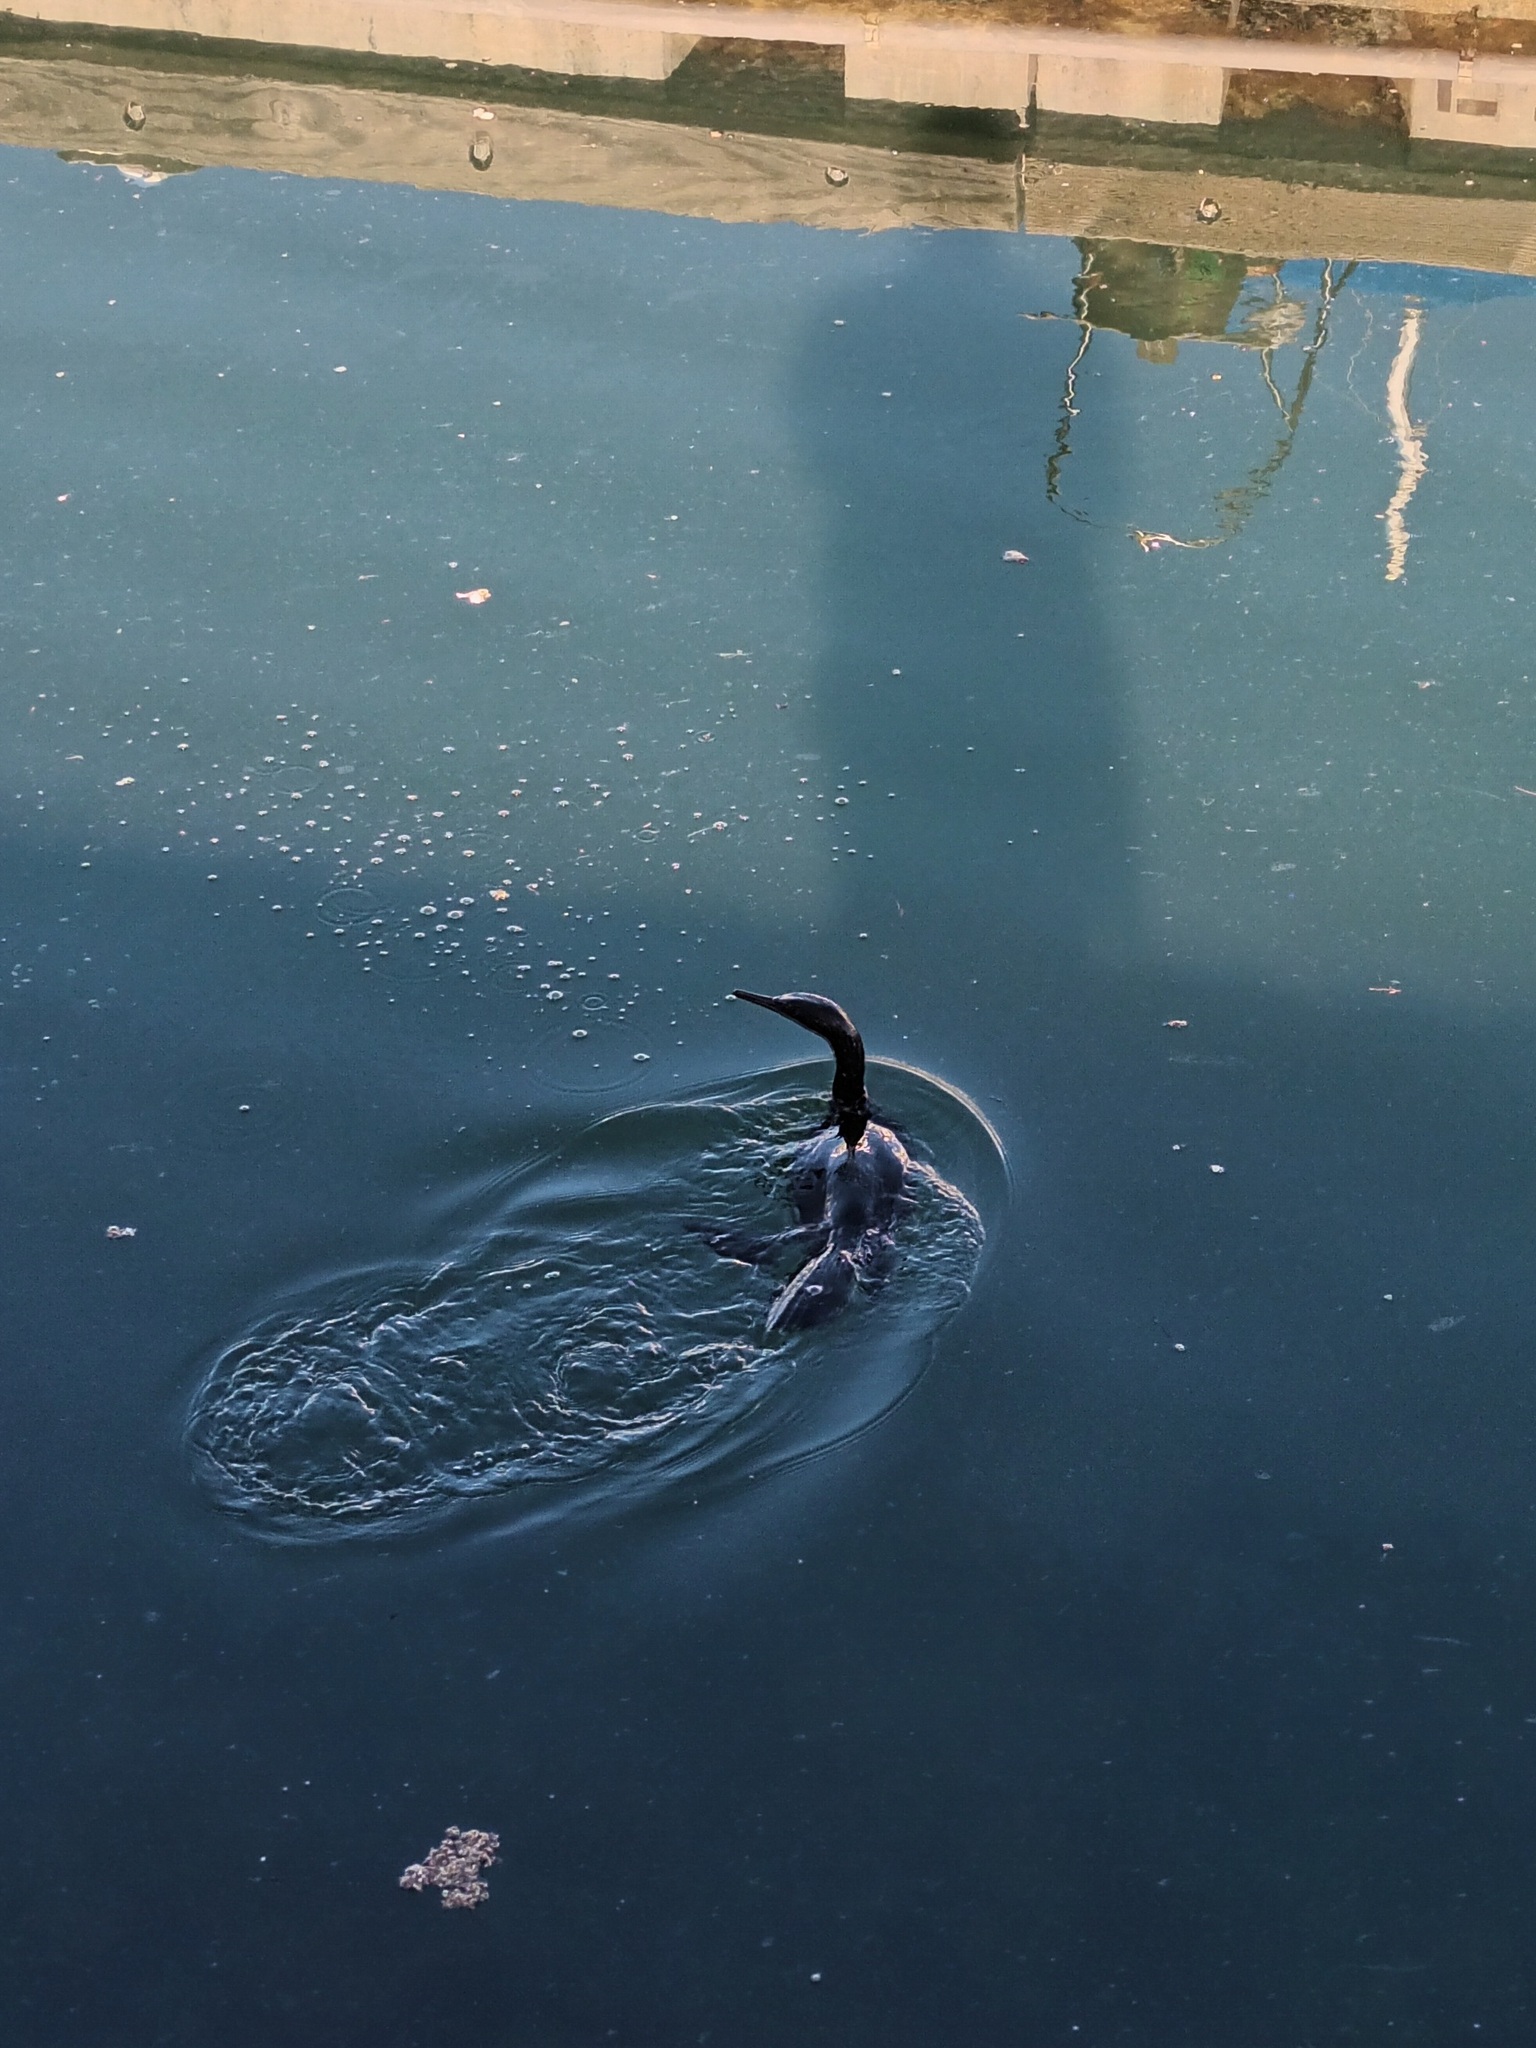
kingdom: Animalia
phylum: Chordata
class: Aves
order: Suliformes
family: Phalacrocoracidae
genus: Urile
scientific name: Urile penicillatus
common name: Brandt's cormorant
